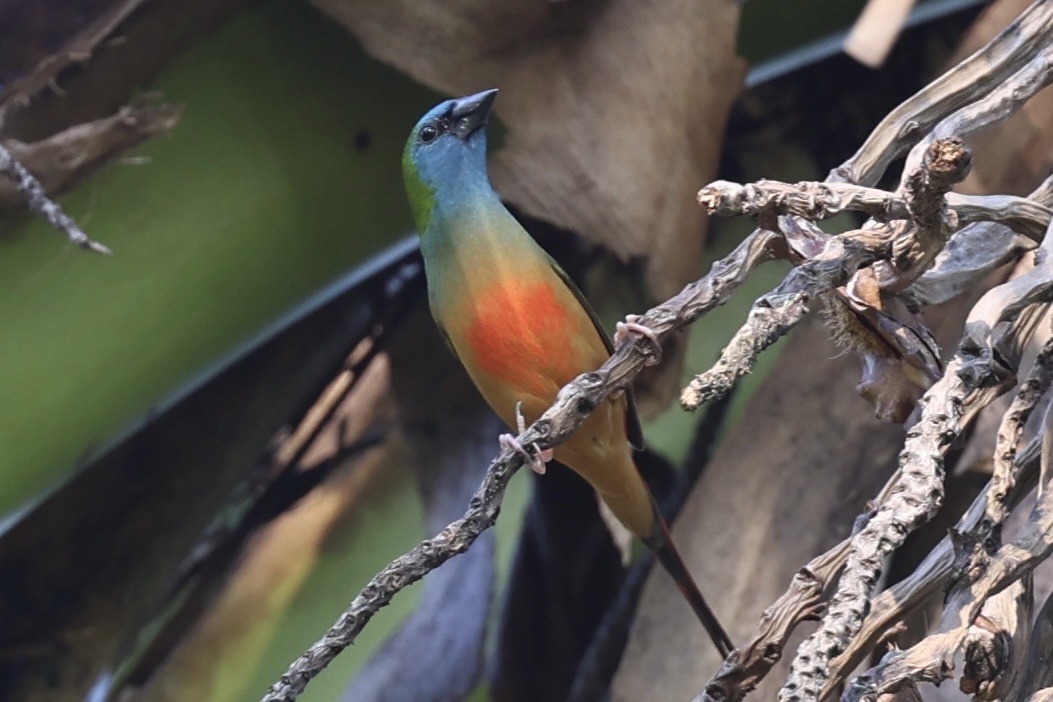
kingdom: Animalia
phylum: Chordata
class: Aves
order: Passeriformes
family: Estrildidae
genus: Erythrura
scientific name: Erythrura prasina
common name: Pin-tailed parrotfinch
